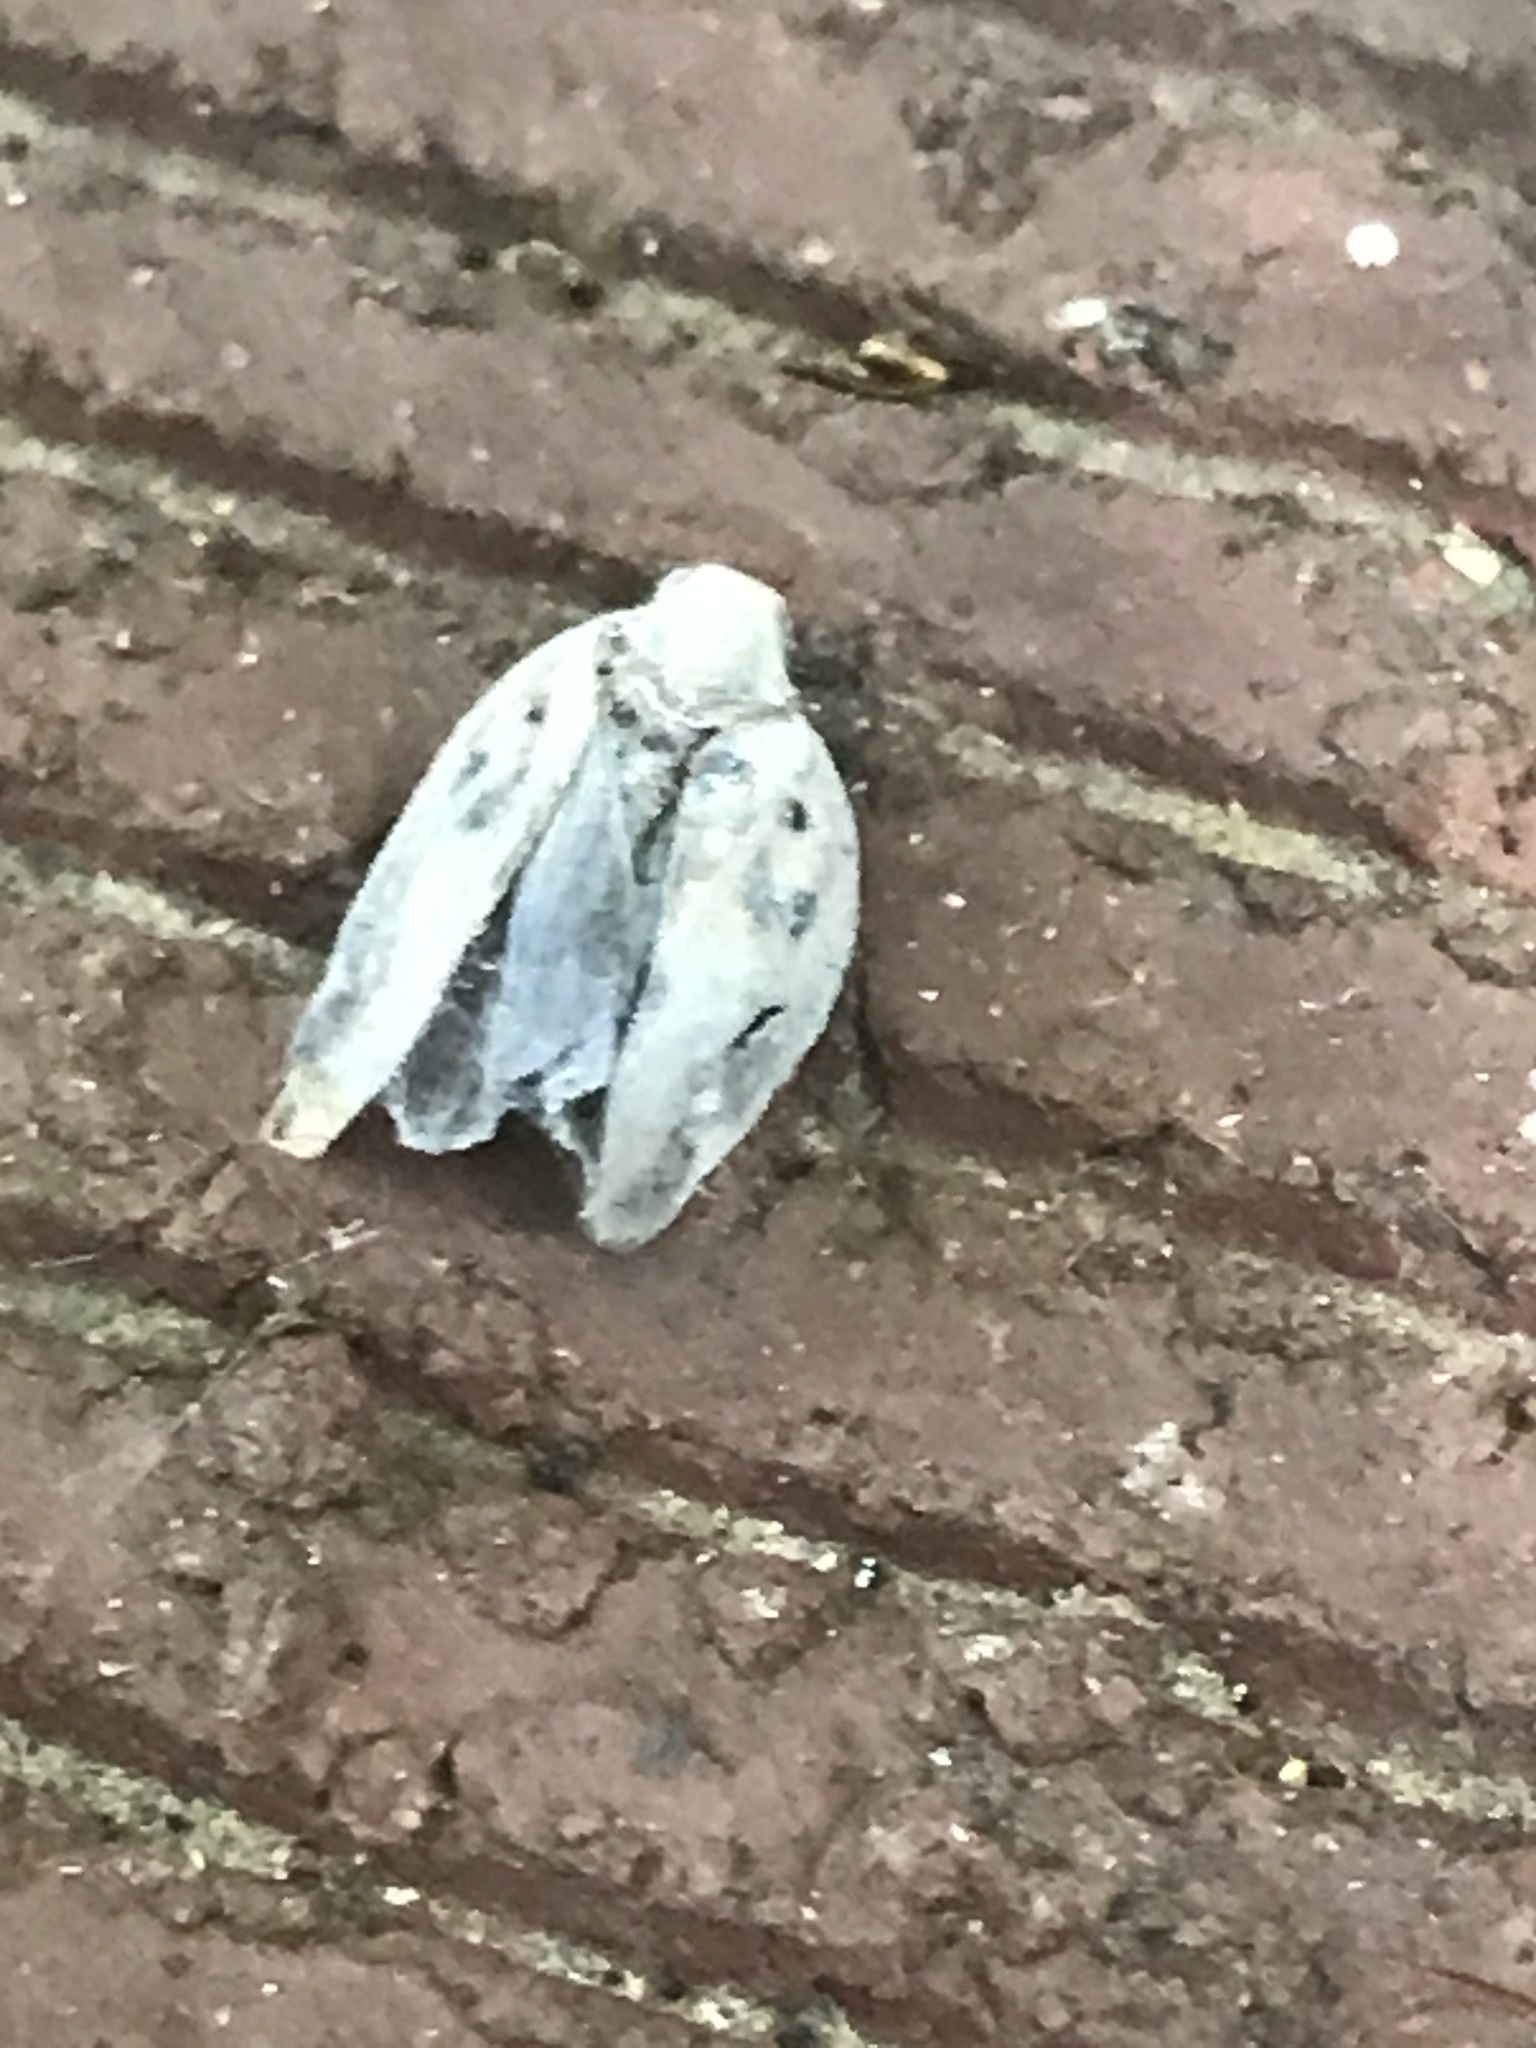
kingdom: Animalia
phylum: Arthropoda
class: Insecta
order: Hemiptera
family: Flatidae
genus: Metcalfa
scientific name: Metcalfa pruinosa
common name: Citrus flatid planthopper
